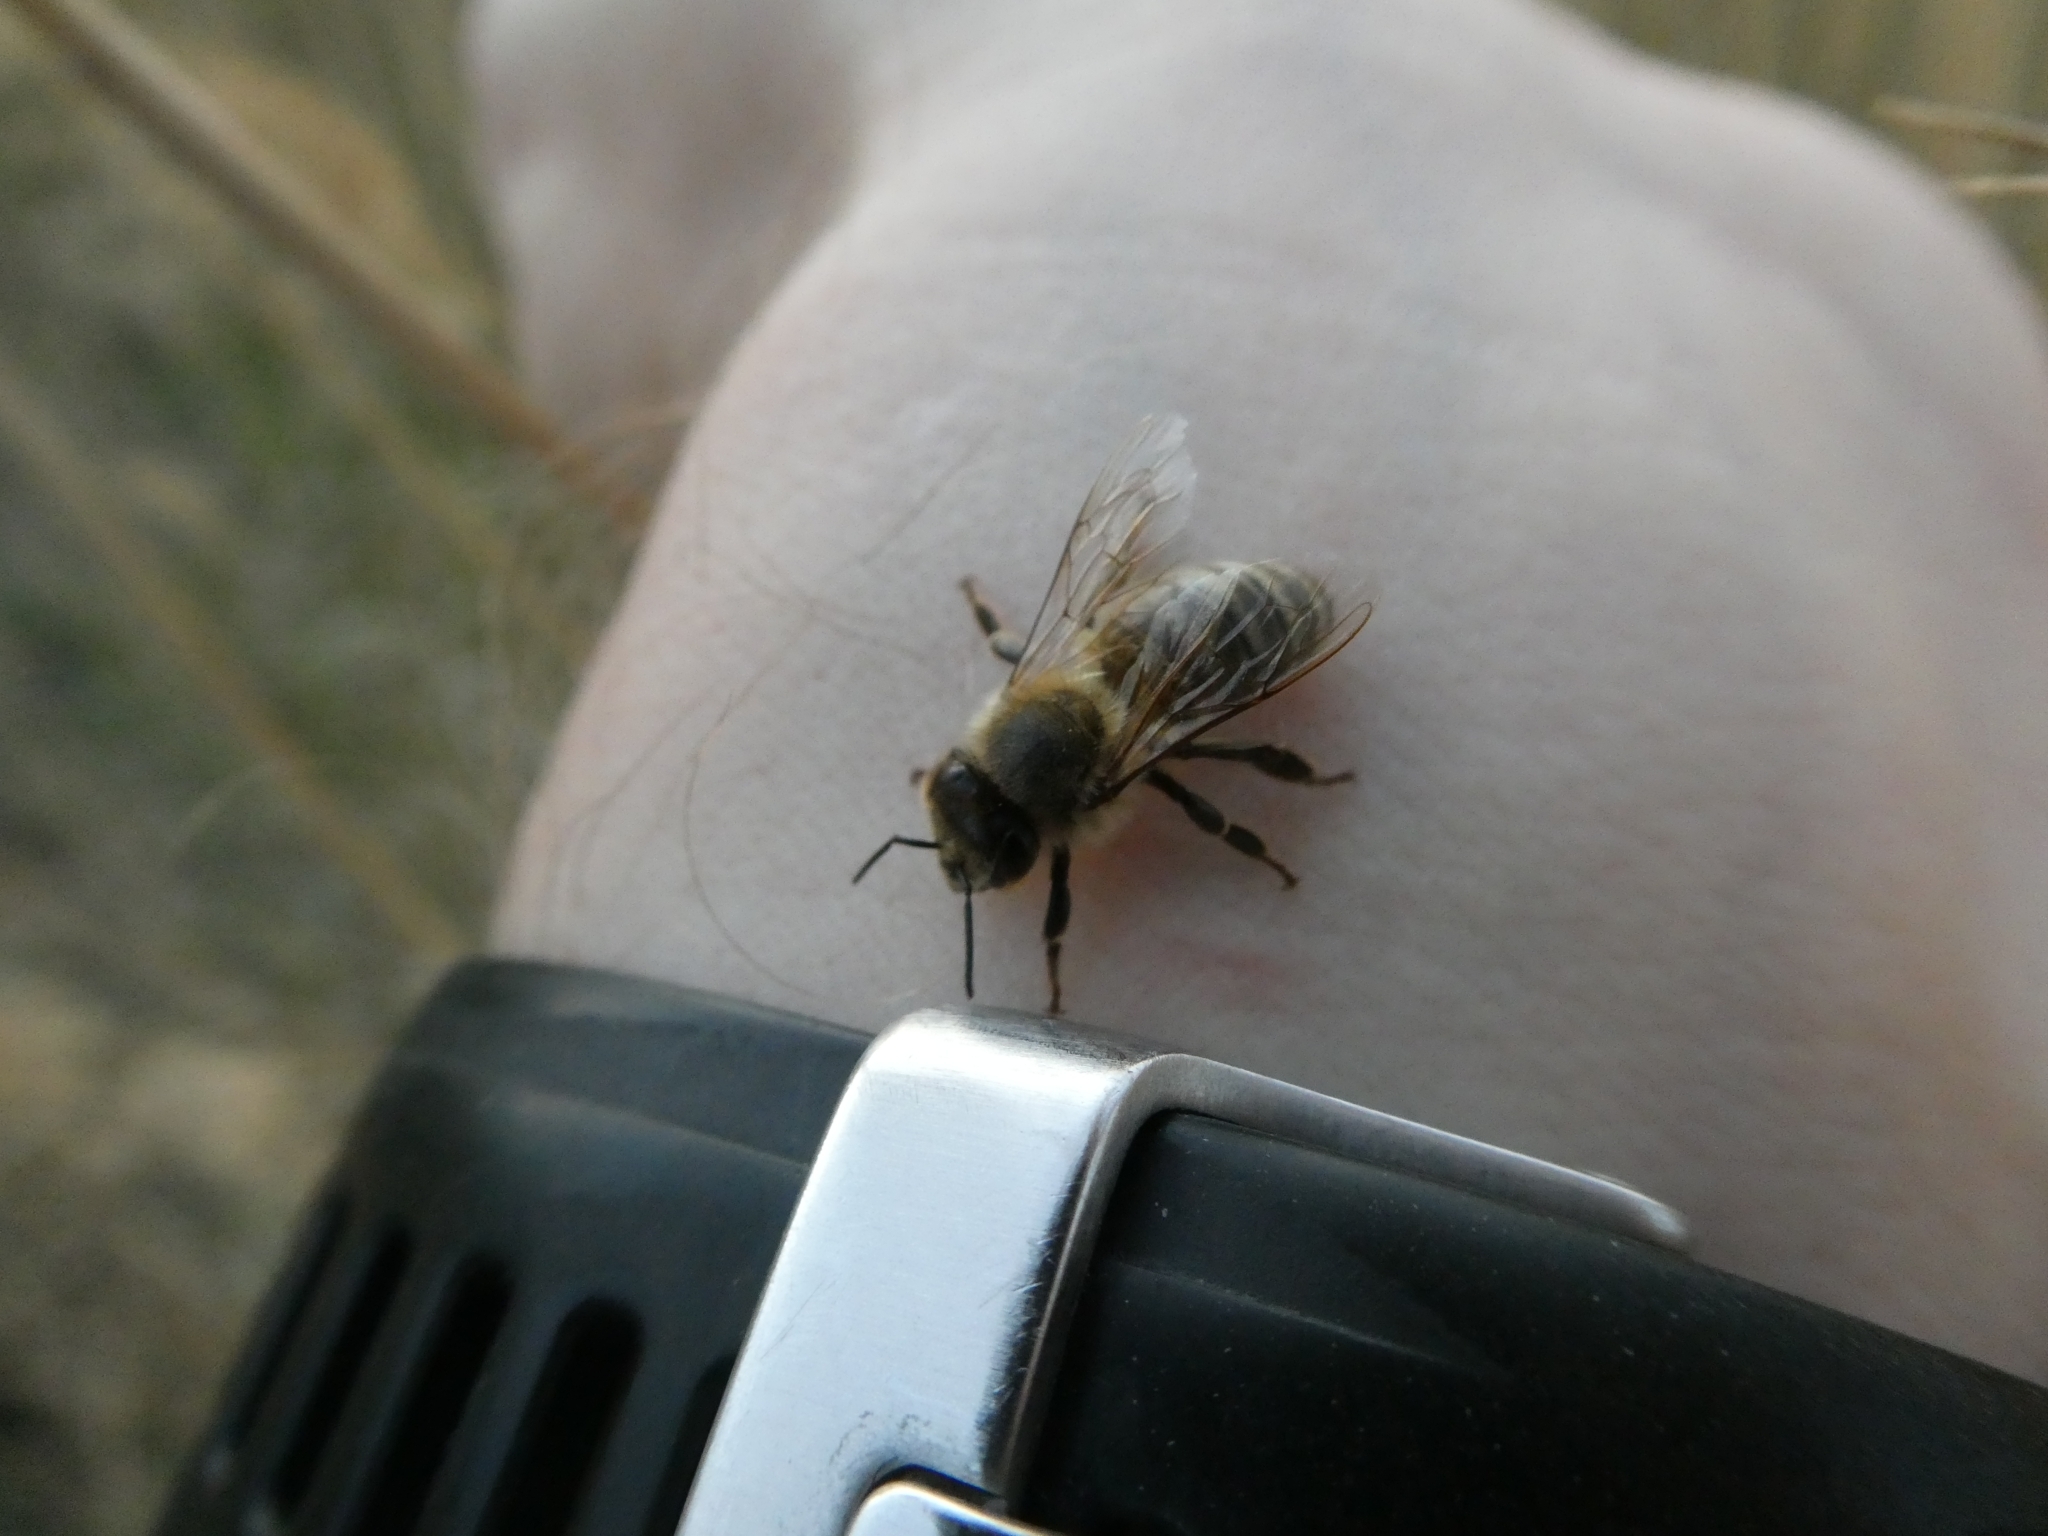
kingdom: Animalia
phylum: Arthropoda
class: Insecta
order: Hymenoptera
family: Apidae
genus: Apis
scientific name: Apis mellifera
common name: Honey bee
